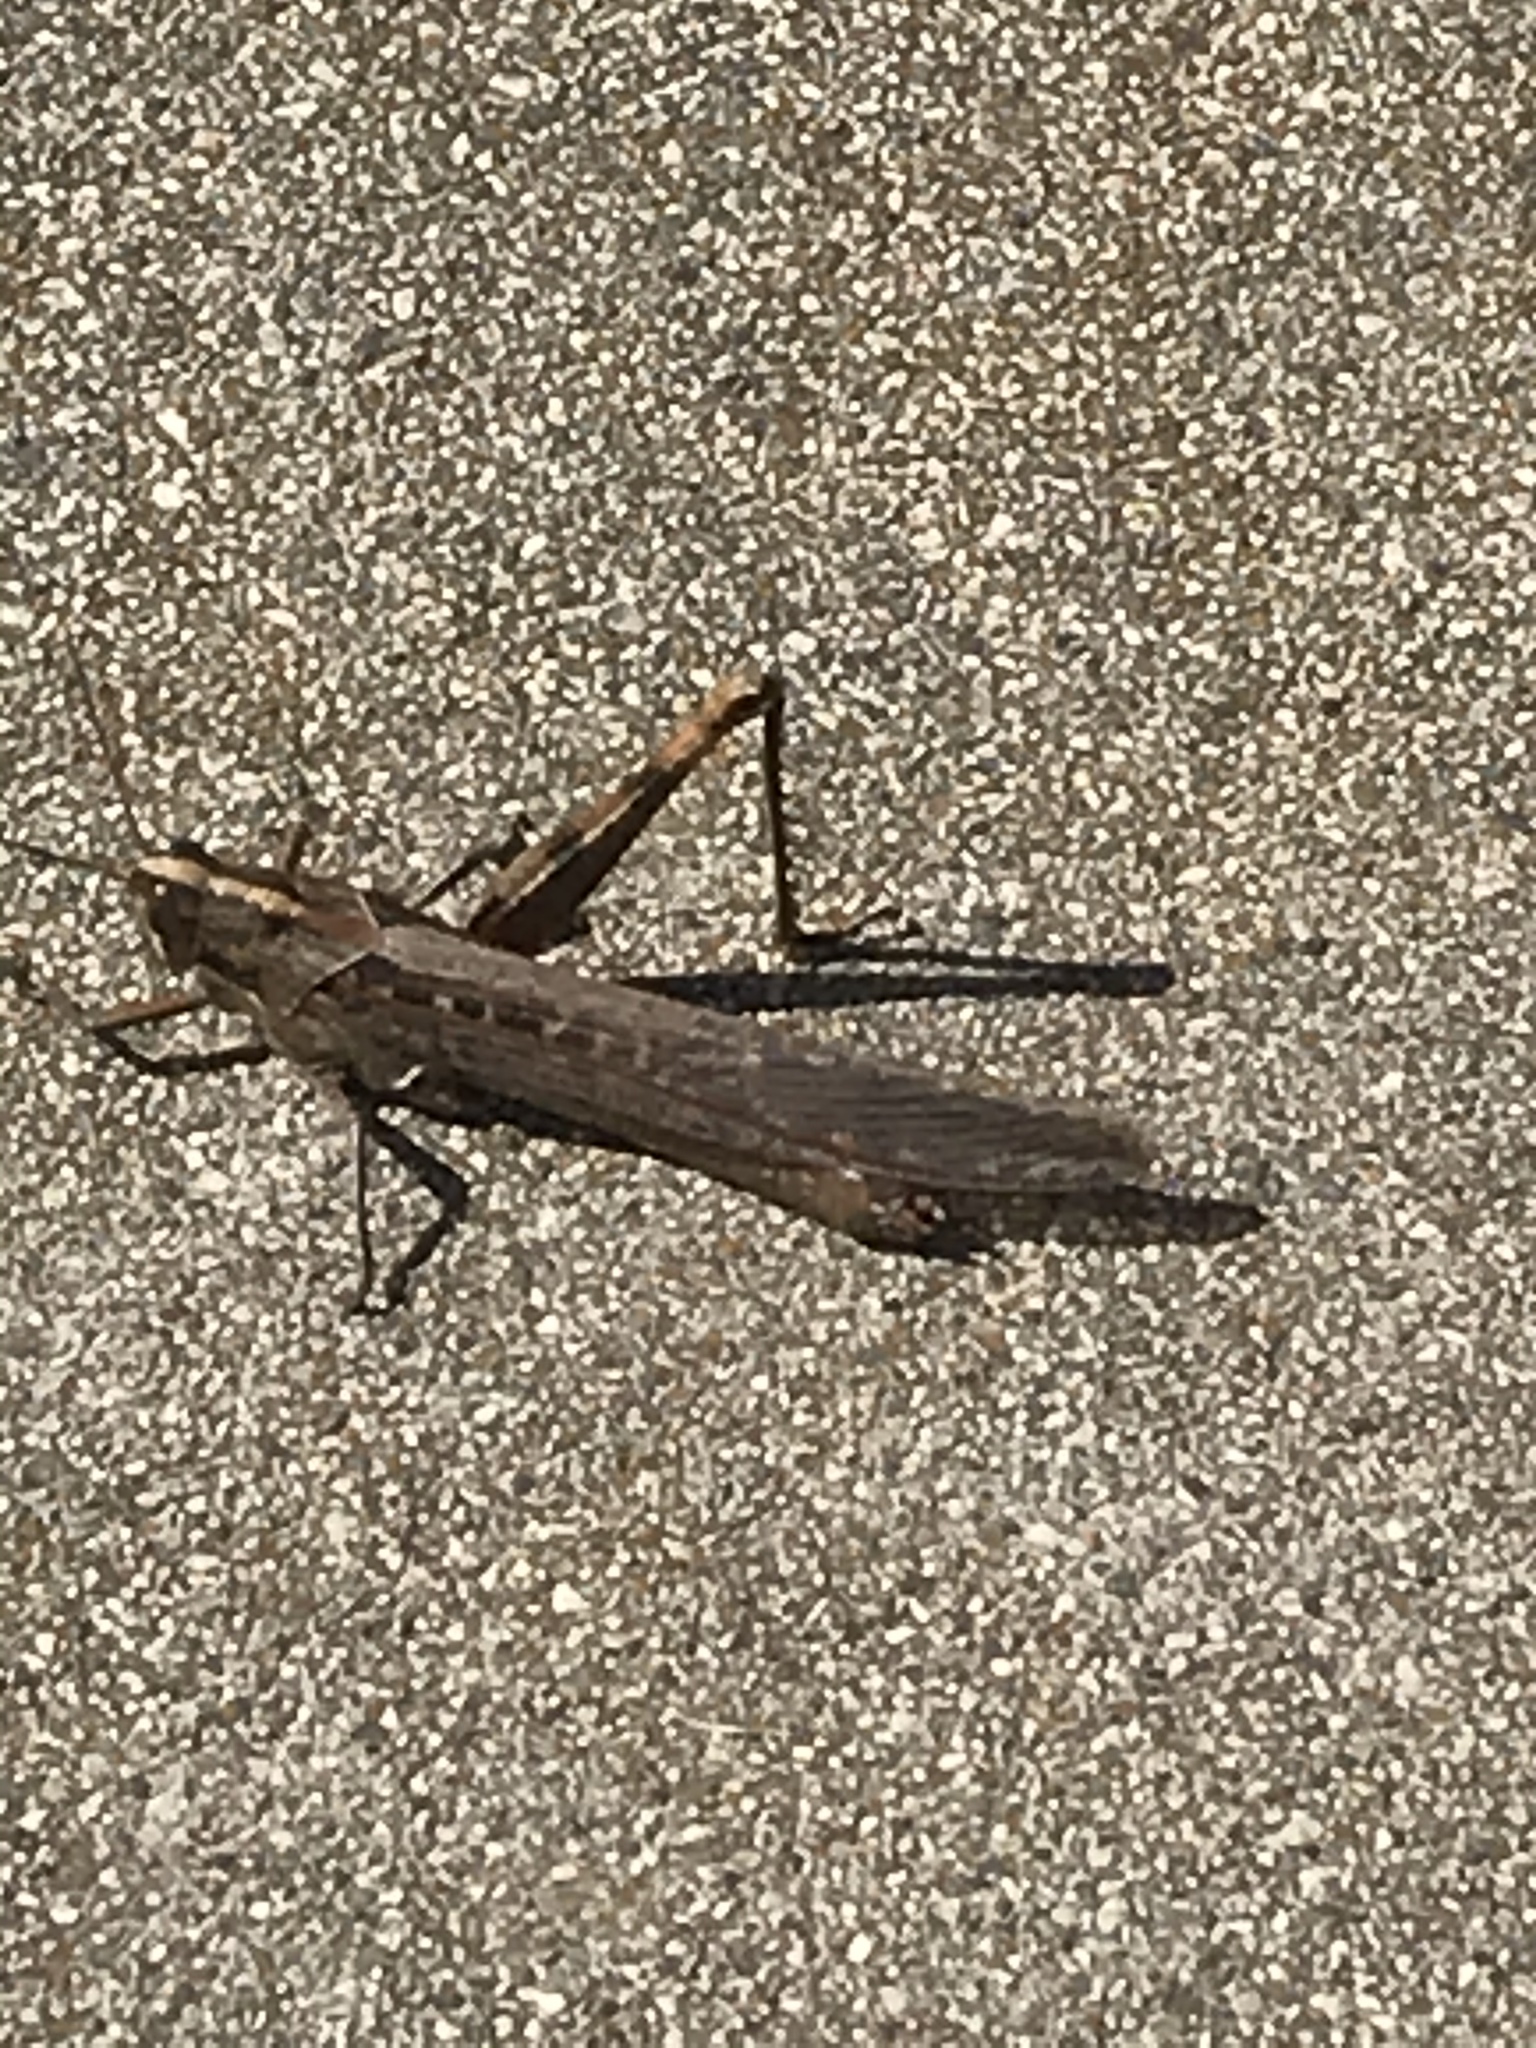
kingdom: Animalia
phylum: Arthropoda
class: Insecta
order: Orthoptera
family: Acrididae
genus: Schistocerca
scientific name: Schistocerca nitens
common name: Vagrant grasshopper
